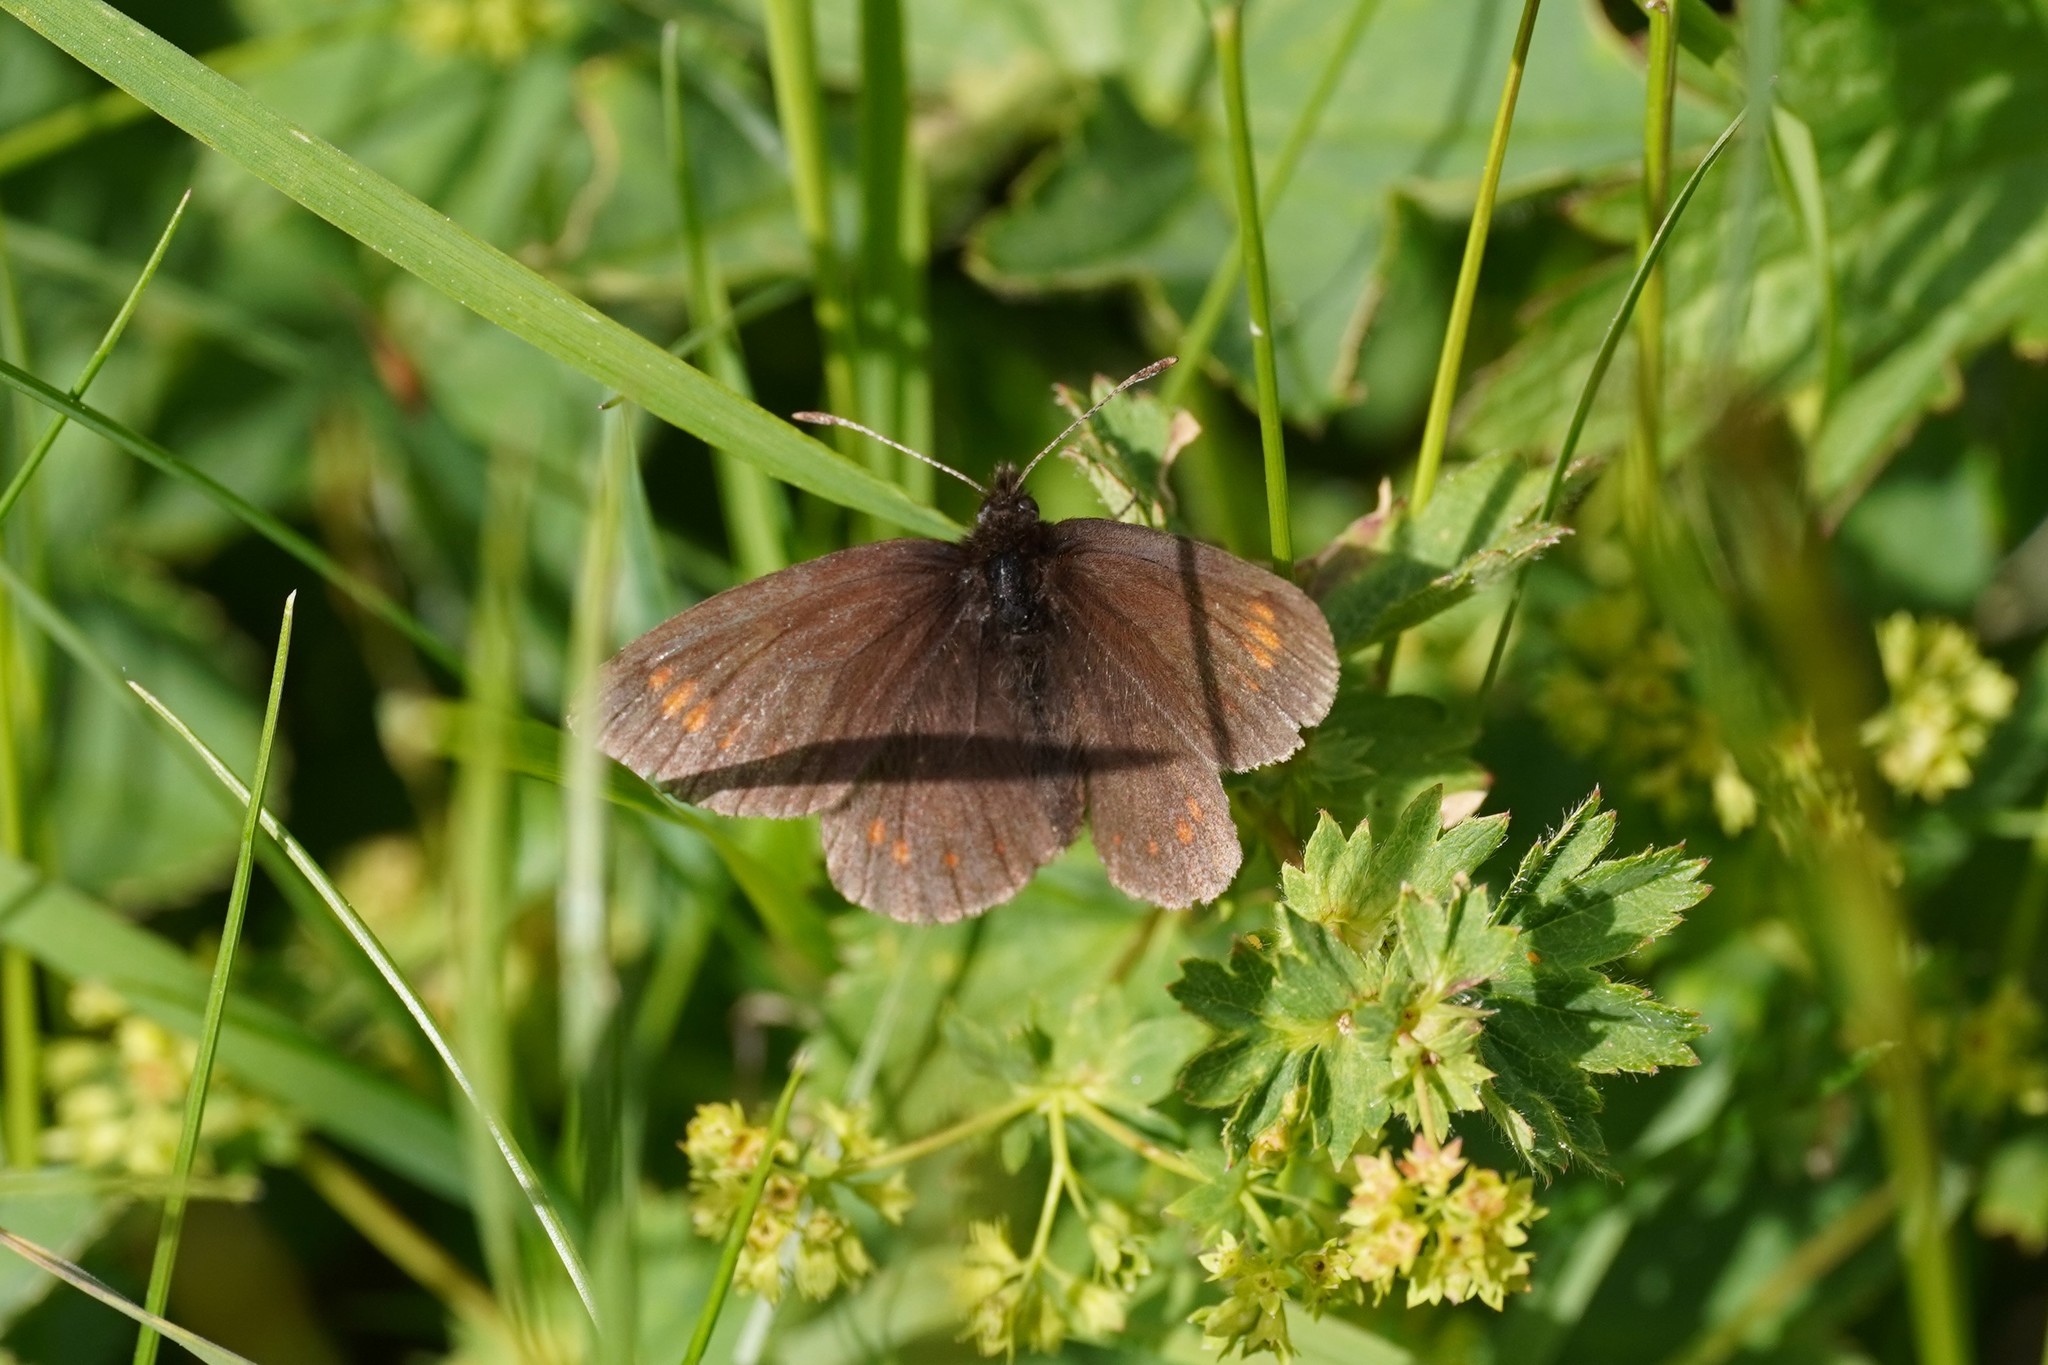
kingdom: Animalia
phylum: Arthropoda
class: Insecta
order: Lepidoptera
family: Nymphalidae
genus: Erebia
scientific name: Erebia pharte
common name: Blind ringlet
